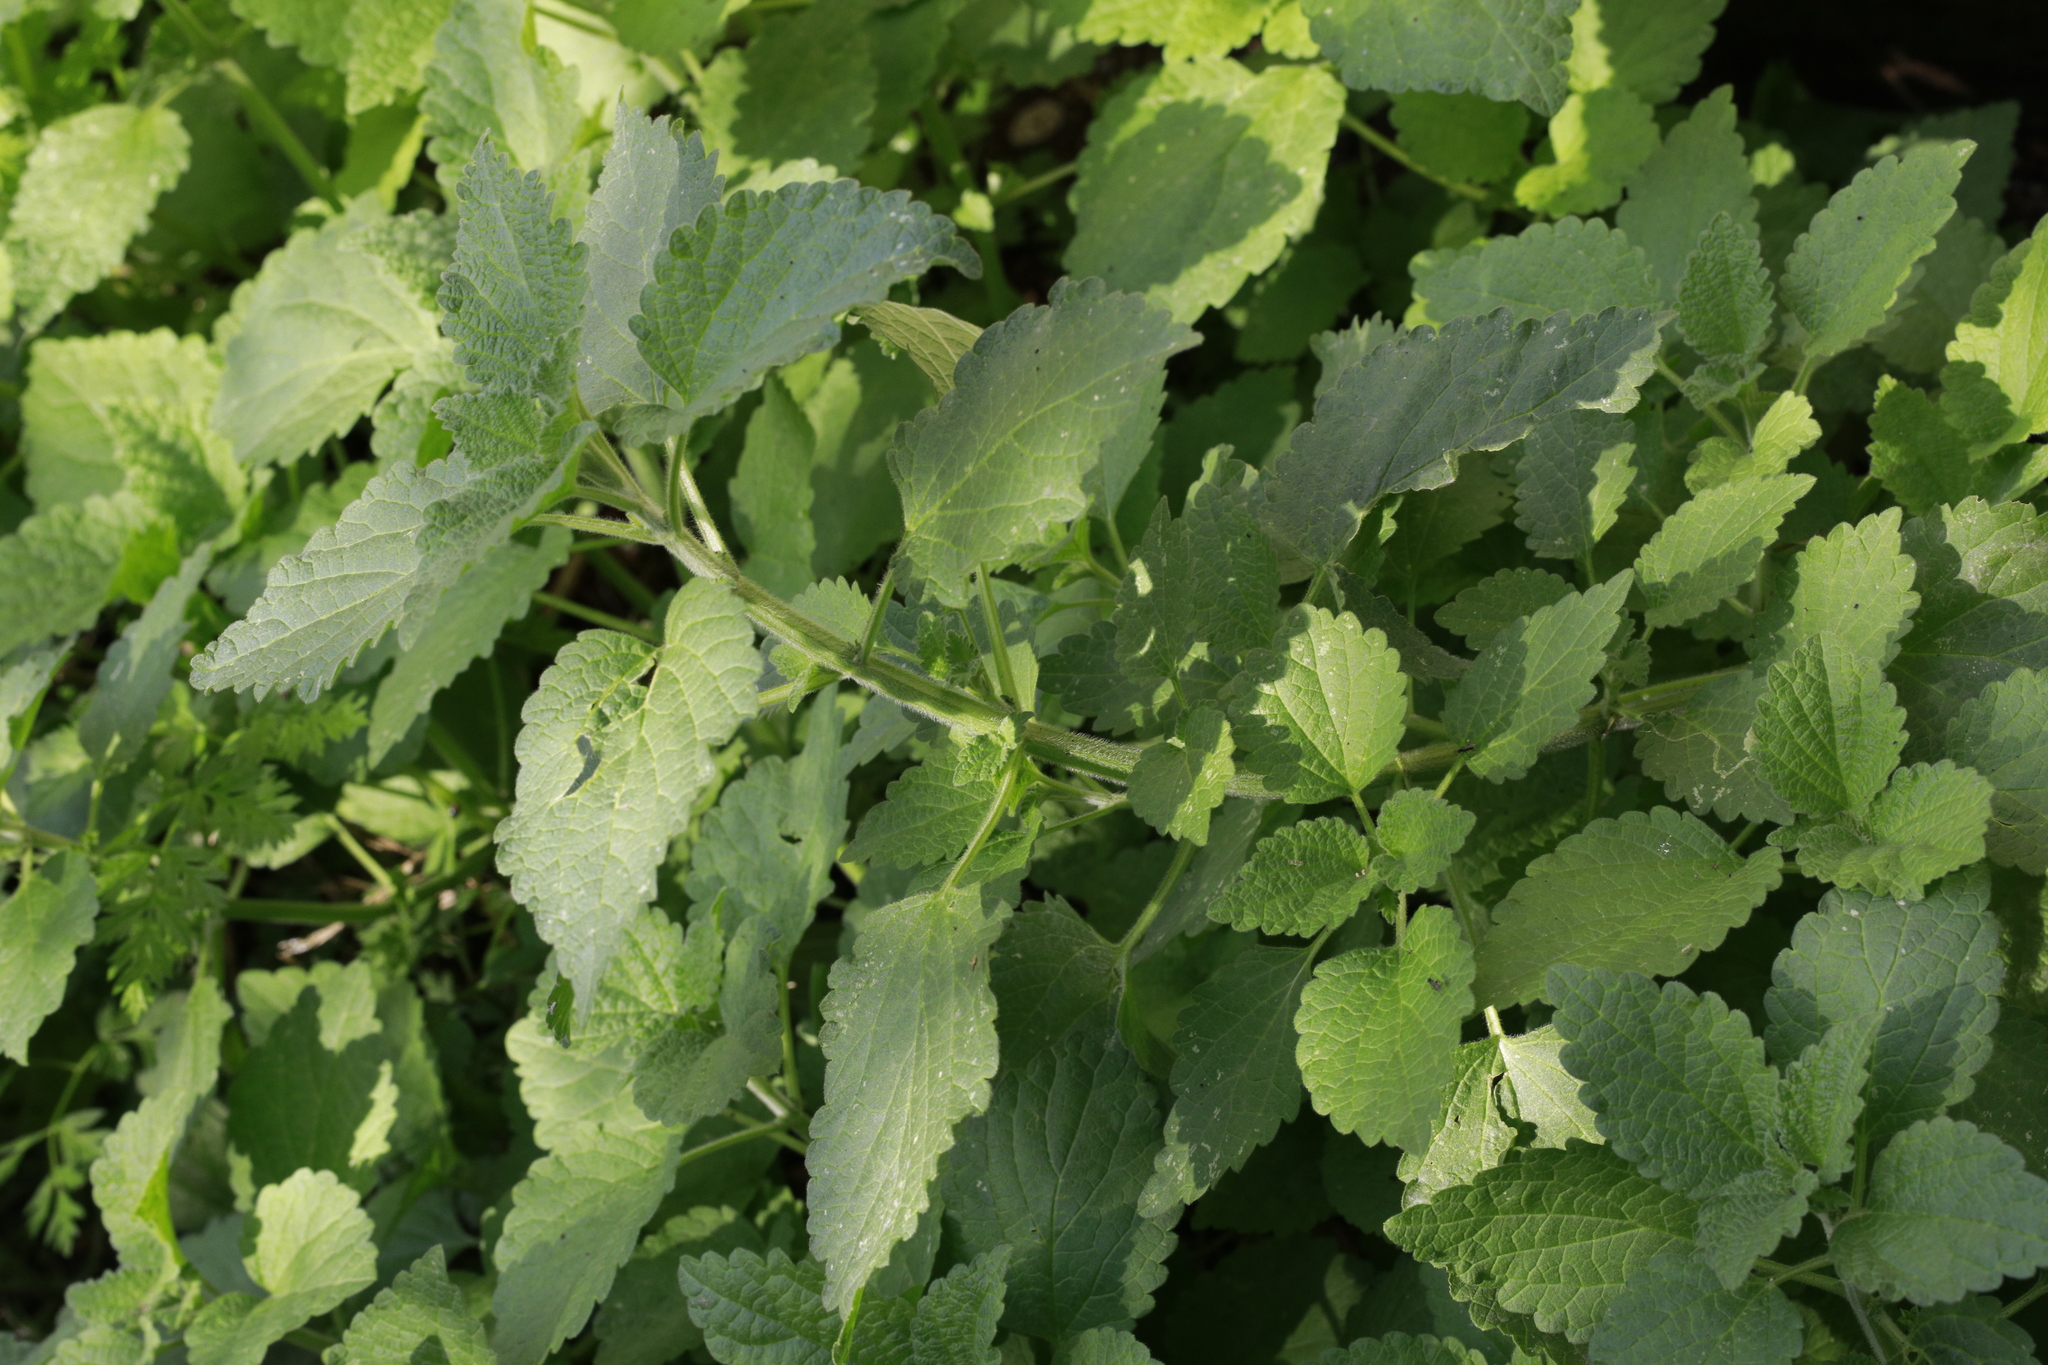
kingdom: Plantae
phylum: Tracheophyta
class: Magnoliopsida
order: Lamiales
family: Lamiaceae
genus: Stachys
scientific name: Stachys sylvatica
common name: Hedge woundwort
